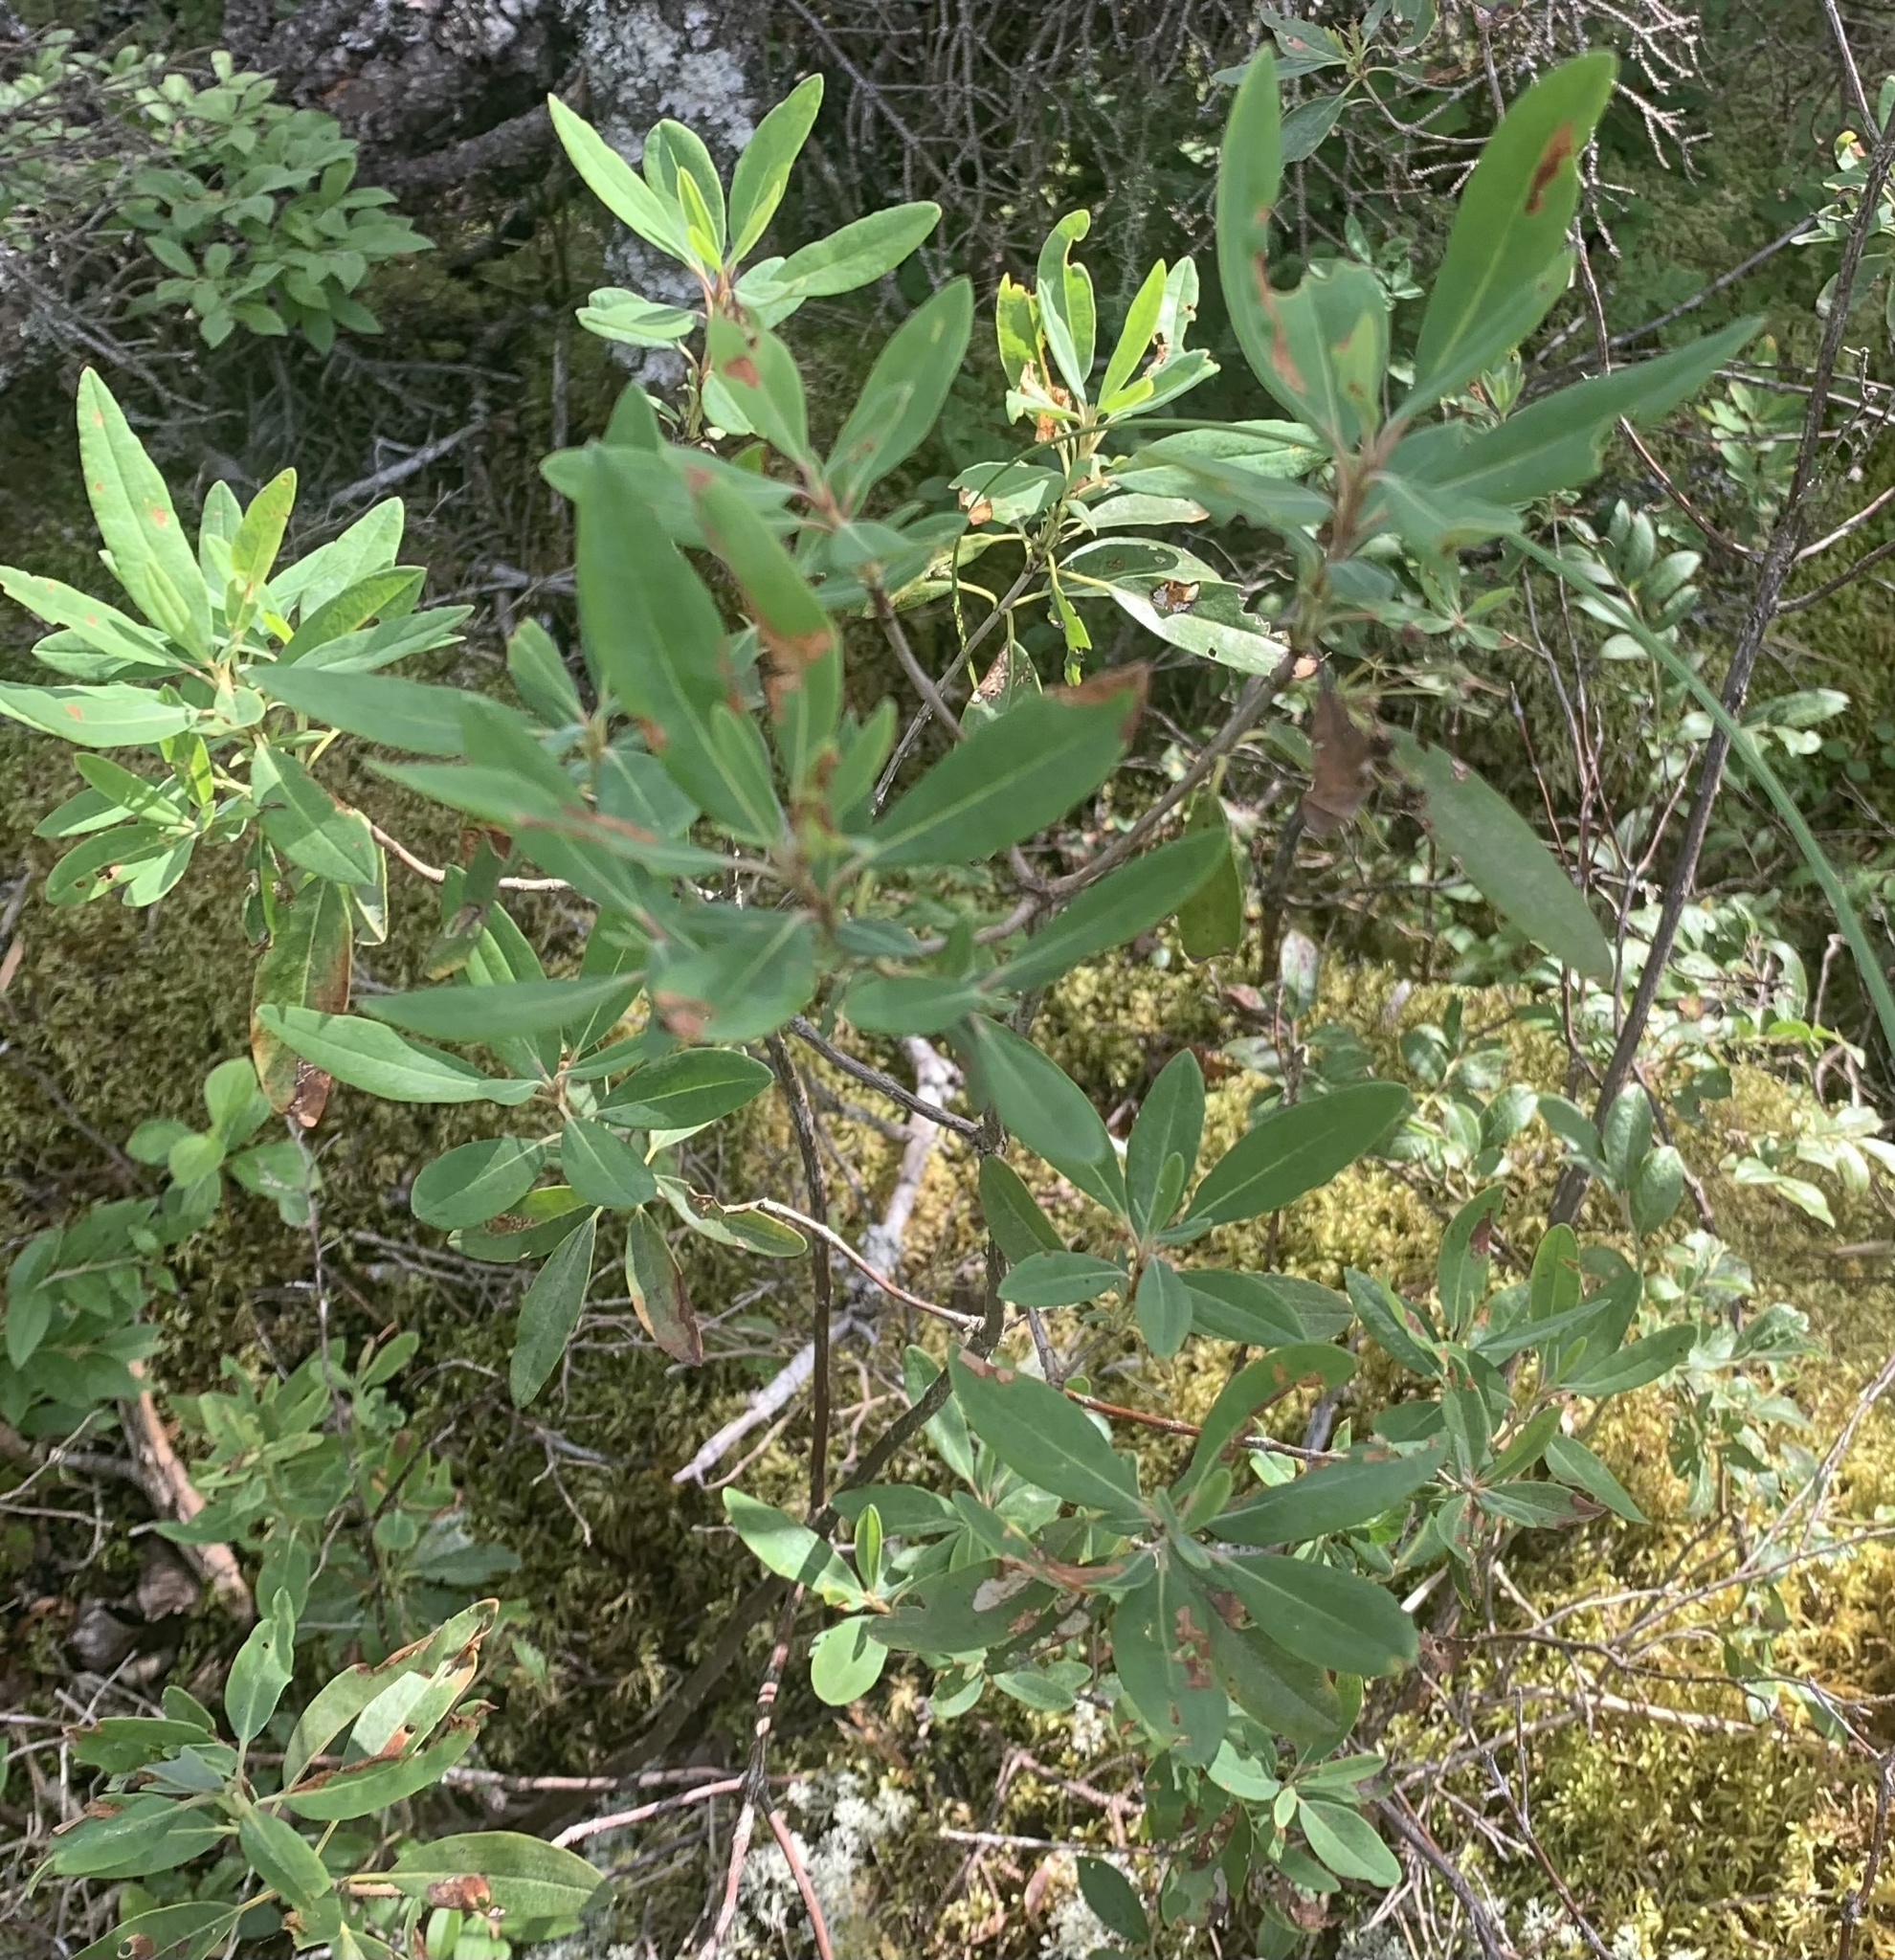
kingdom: Plantae
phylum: Tracheophyta
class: Magnoliopsida
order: Ericales
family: Ericaceae
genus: Kalmia
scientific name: Kalmia angustifolia
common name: Sheep-laurel
